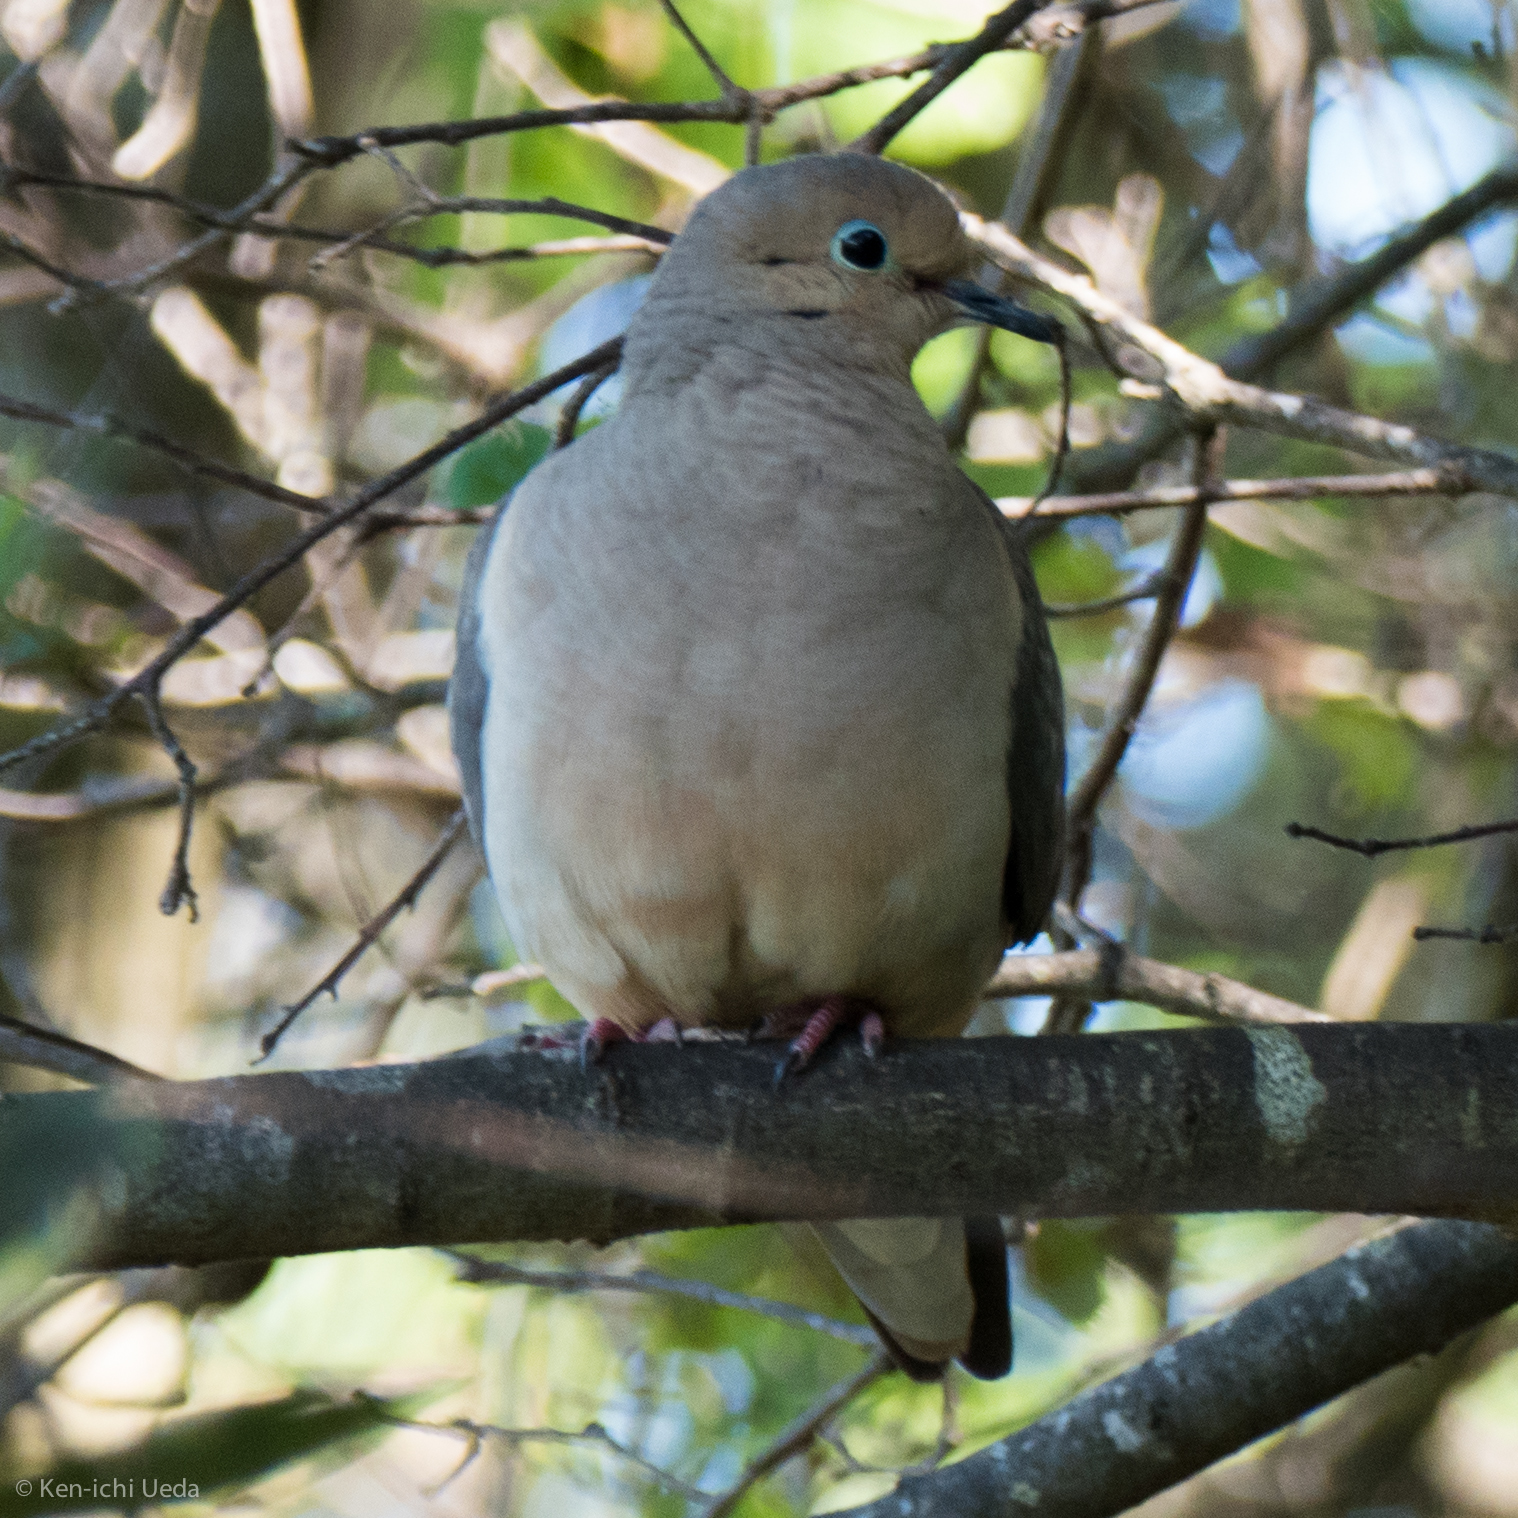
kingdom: Animalia
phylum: Chordata
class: Aves
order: Columbiformes
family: Columbidae
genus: Zenaida
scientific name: Zenaida macroura
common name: Mourning dove
